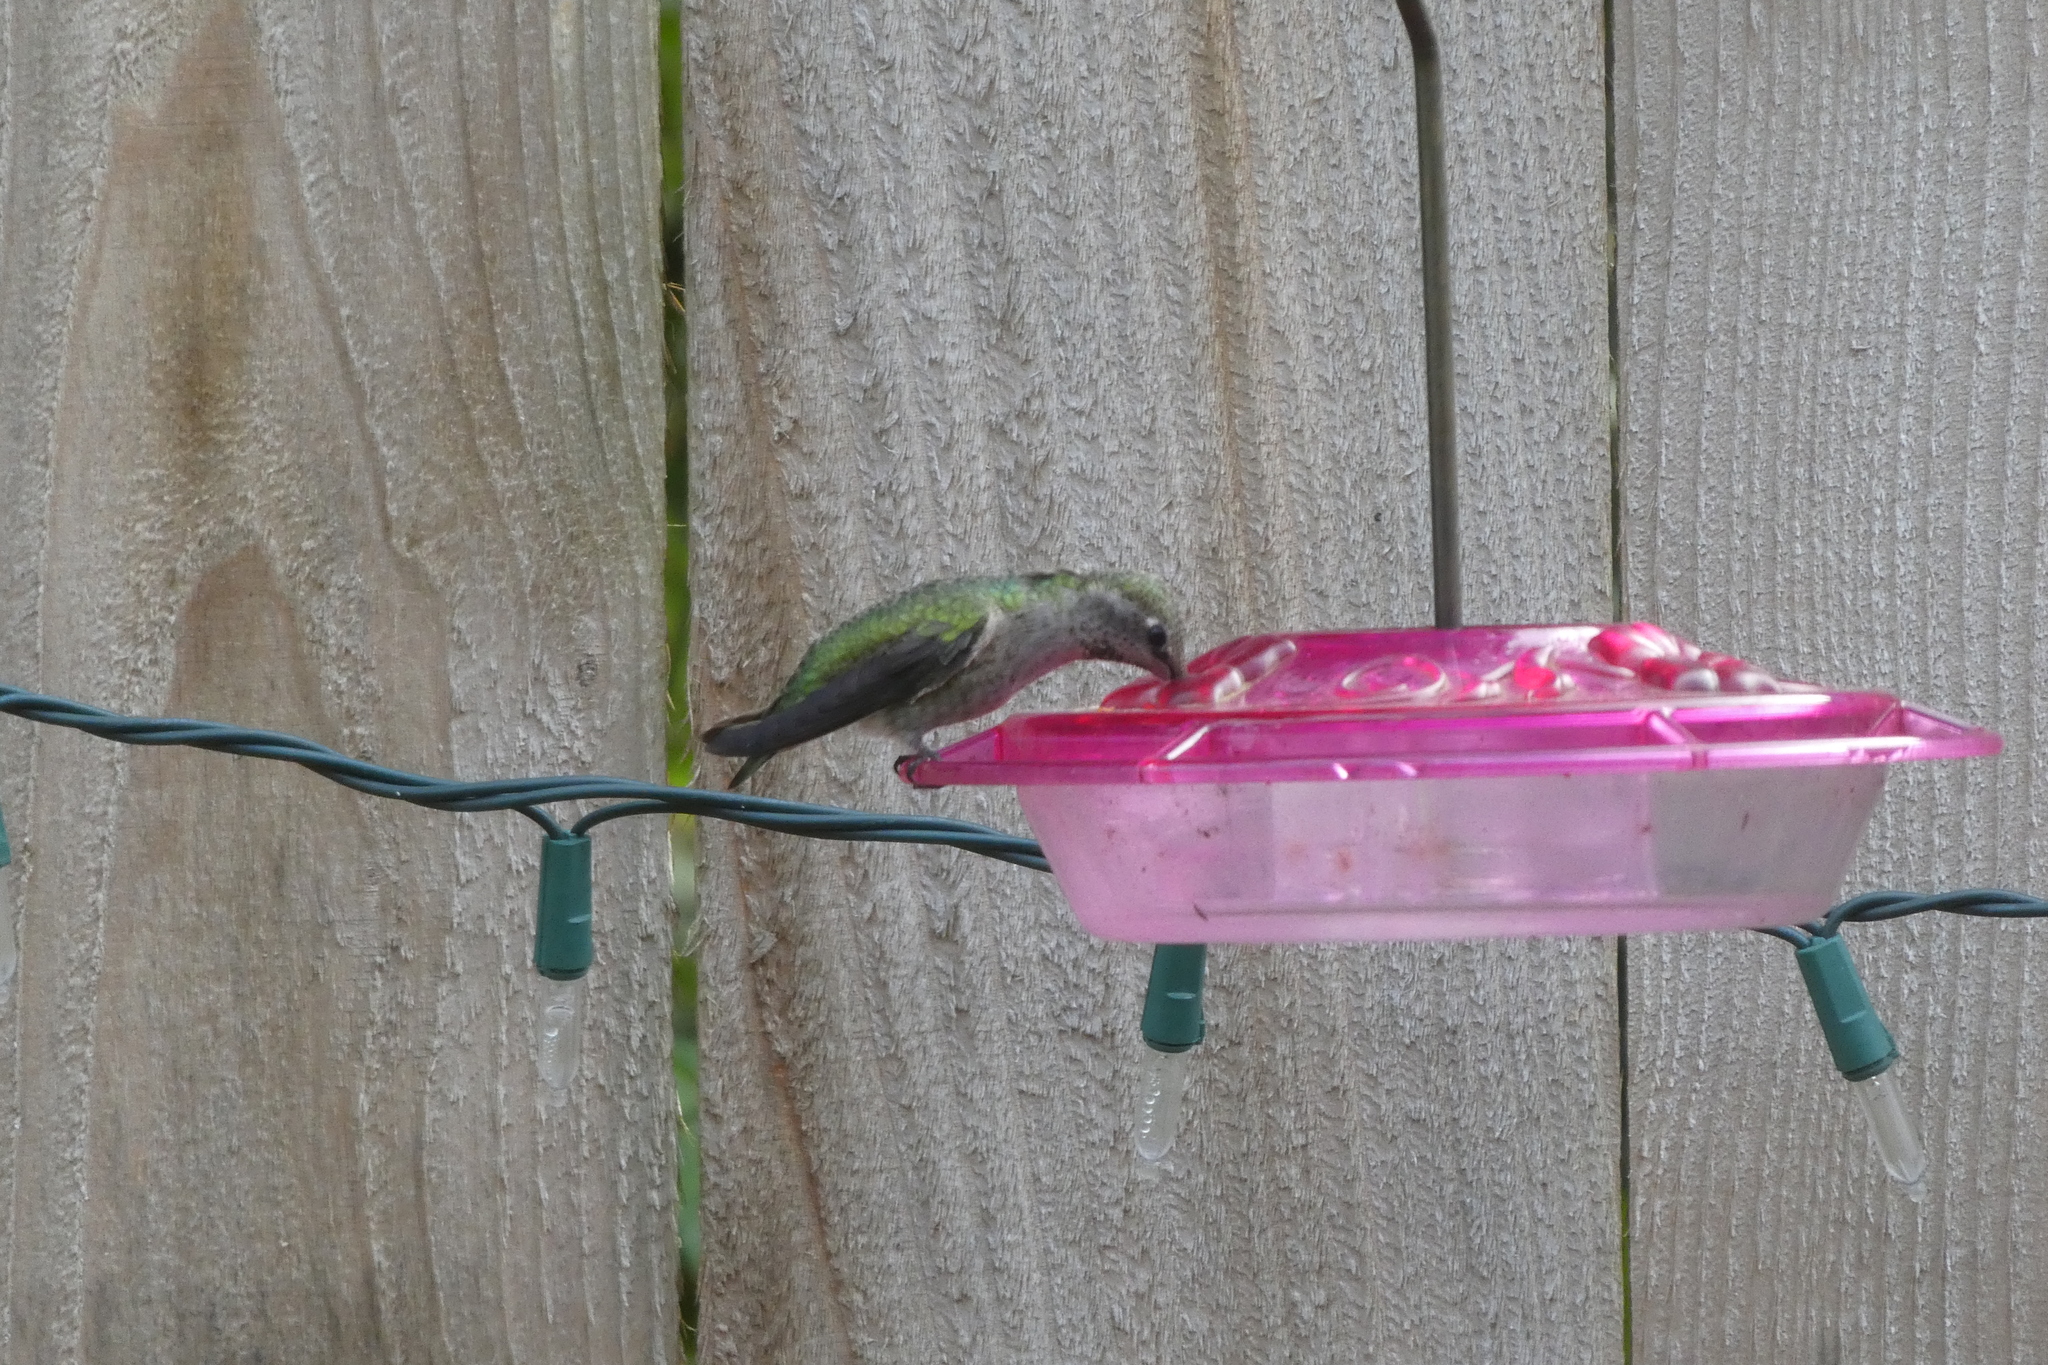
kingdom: Animalia
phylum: Chordata
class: Aves
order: Apodiformes
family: Trochilidae
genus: Calypte
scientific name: Calypte anna
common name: Anna's hummingbird
